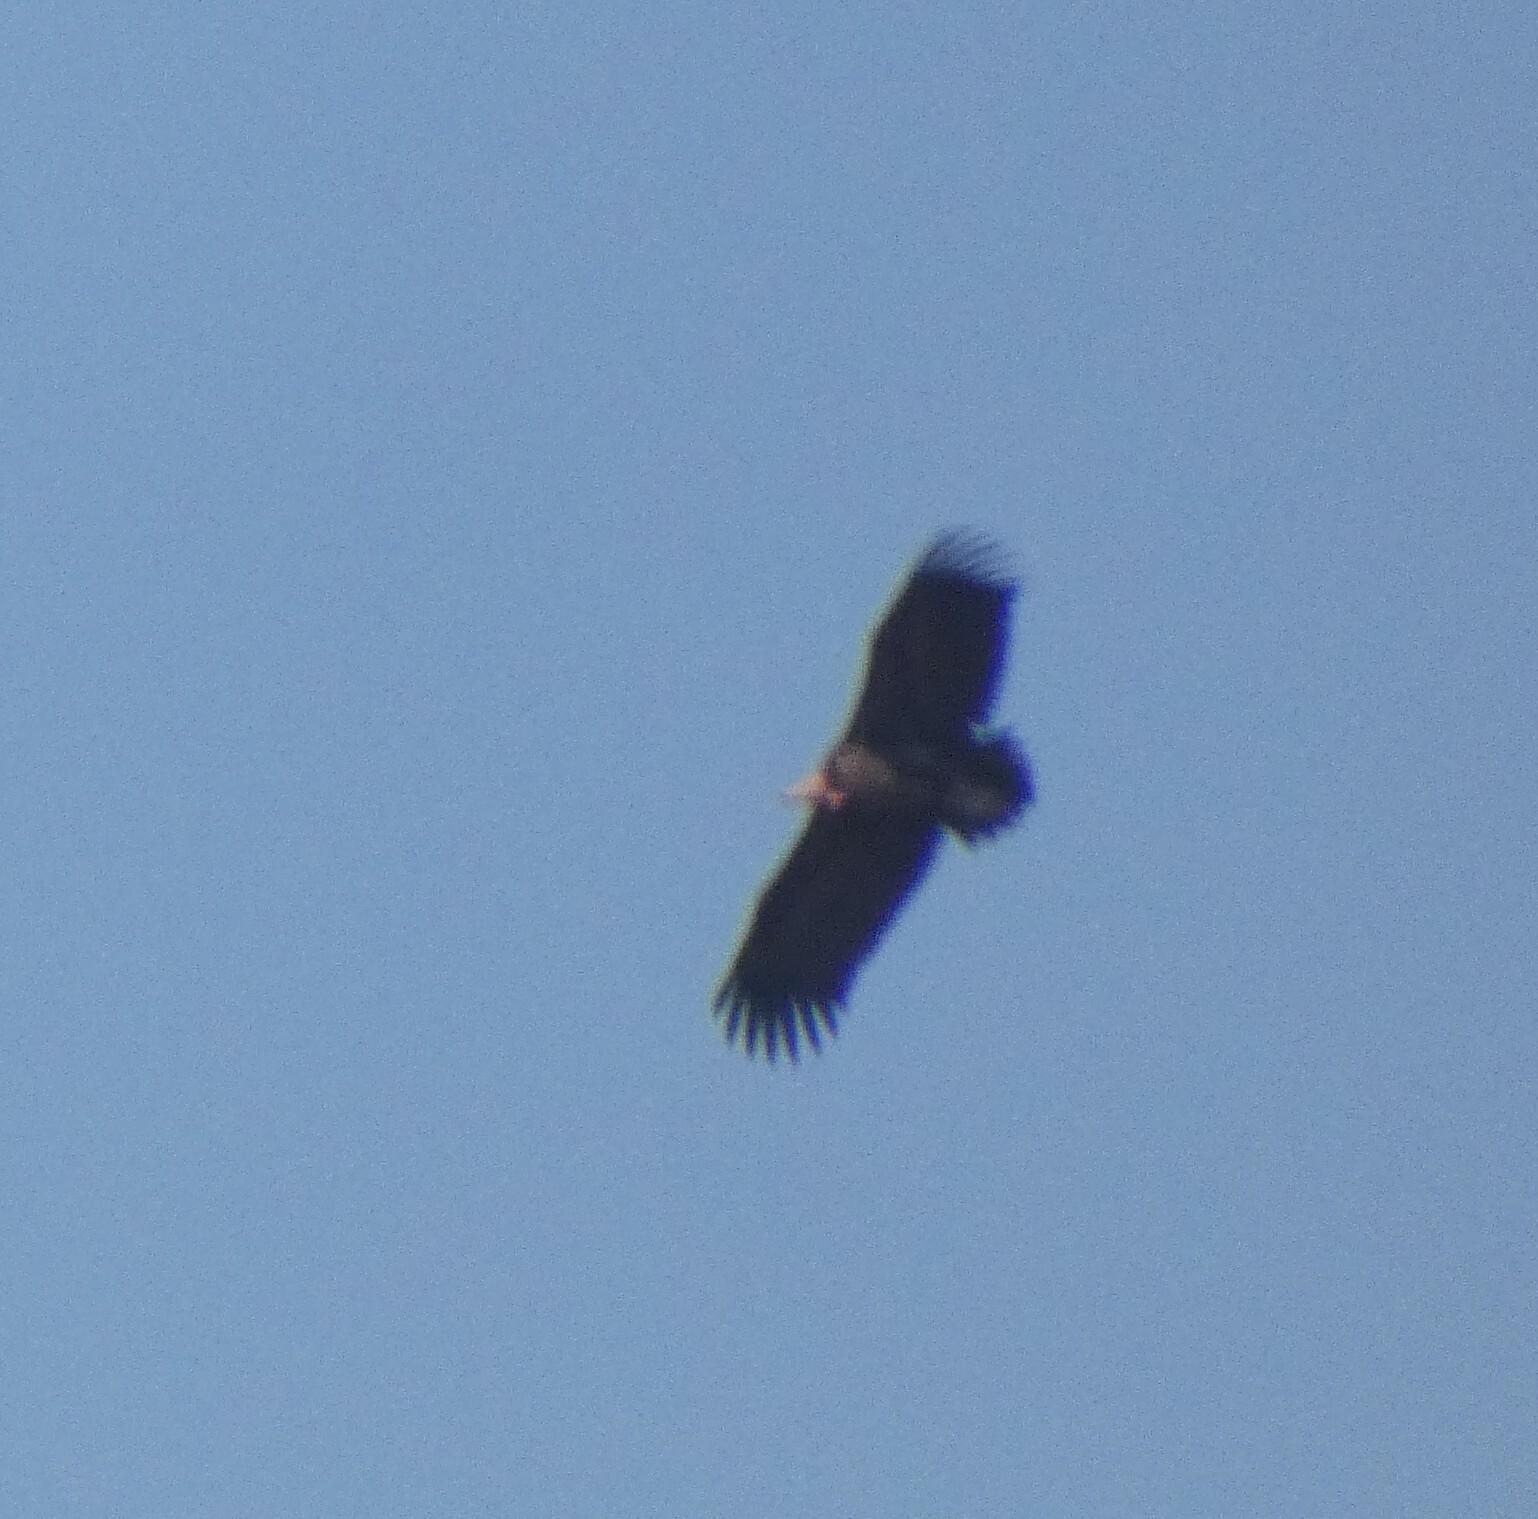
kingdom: Animalia
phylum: Chordata
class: Aves
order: Accipitriformes
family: Accipitridae
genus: Torgos
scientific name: Torgos tracheliotos
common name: Lappet-faced vulture
